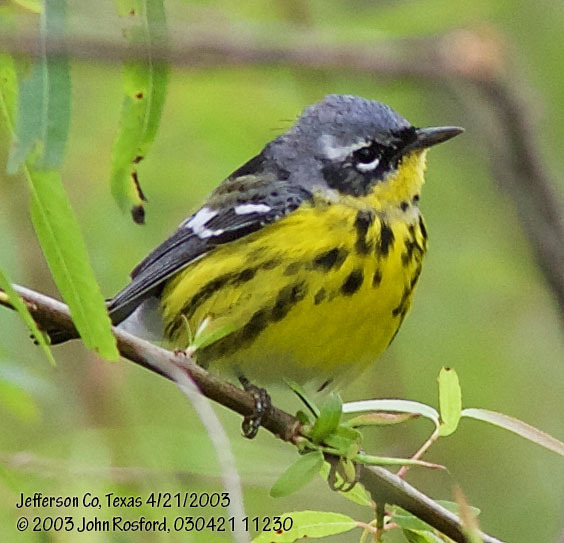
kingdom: Animalia
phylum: Chordata
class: Aves
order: Passeriformes
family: Parulidae
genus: Setophaga
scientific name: Setophaga magnolia
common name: Magnolia warbler
